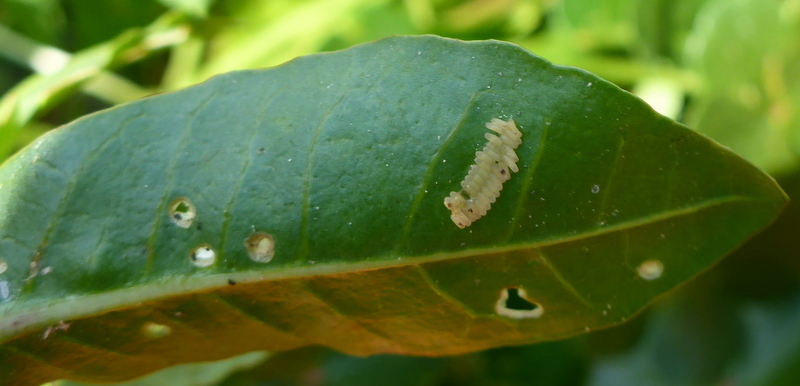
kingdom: Animalia
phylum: Arthropoda
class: Insecta
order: Coleoptera
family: Chrysomelidae
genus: Agasicles
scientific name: Agasicles hygrophila
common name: Alligatorweed flea beetle
